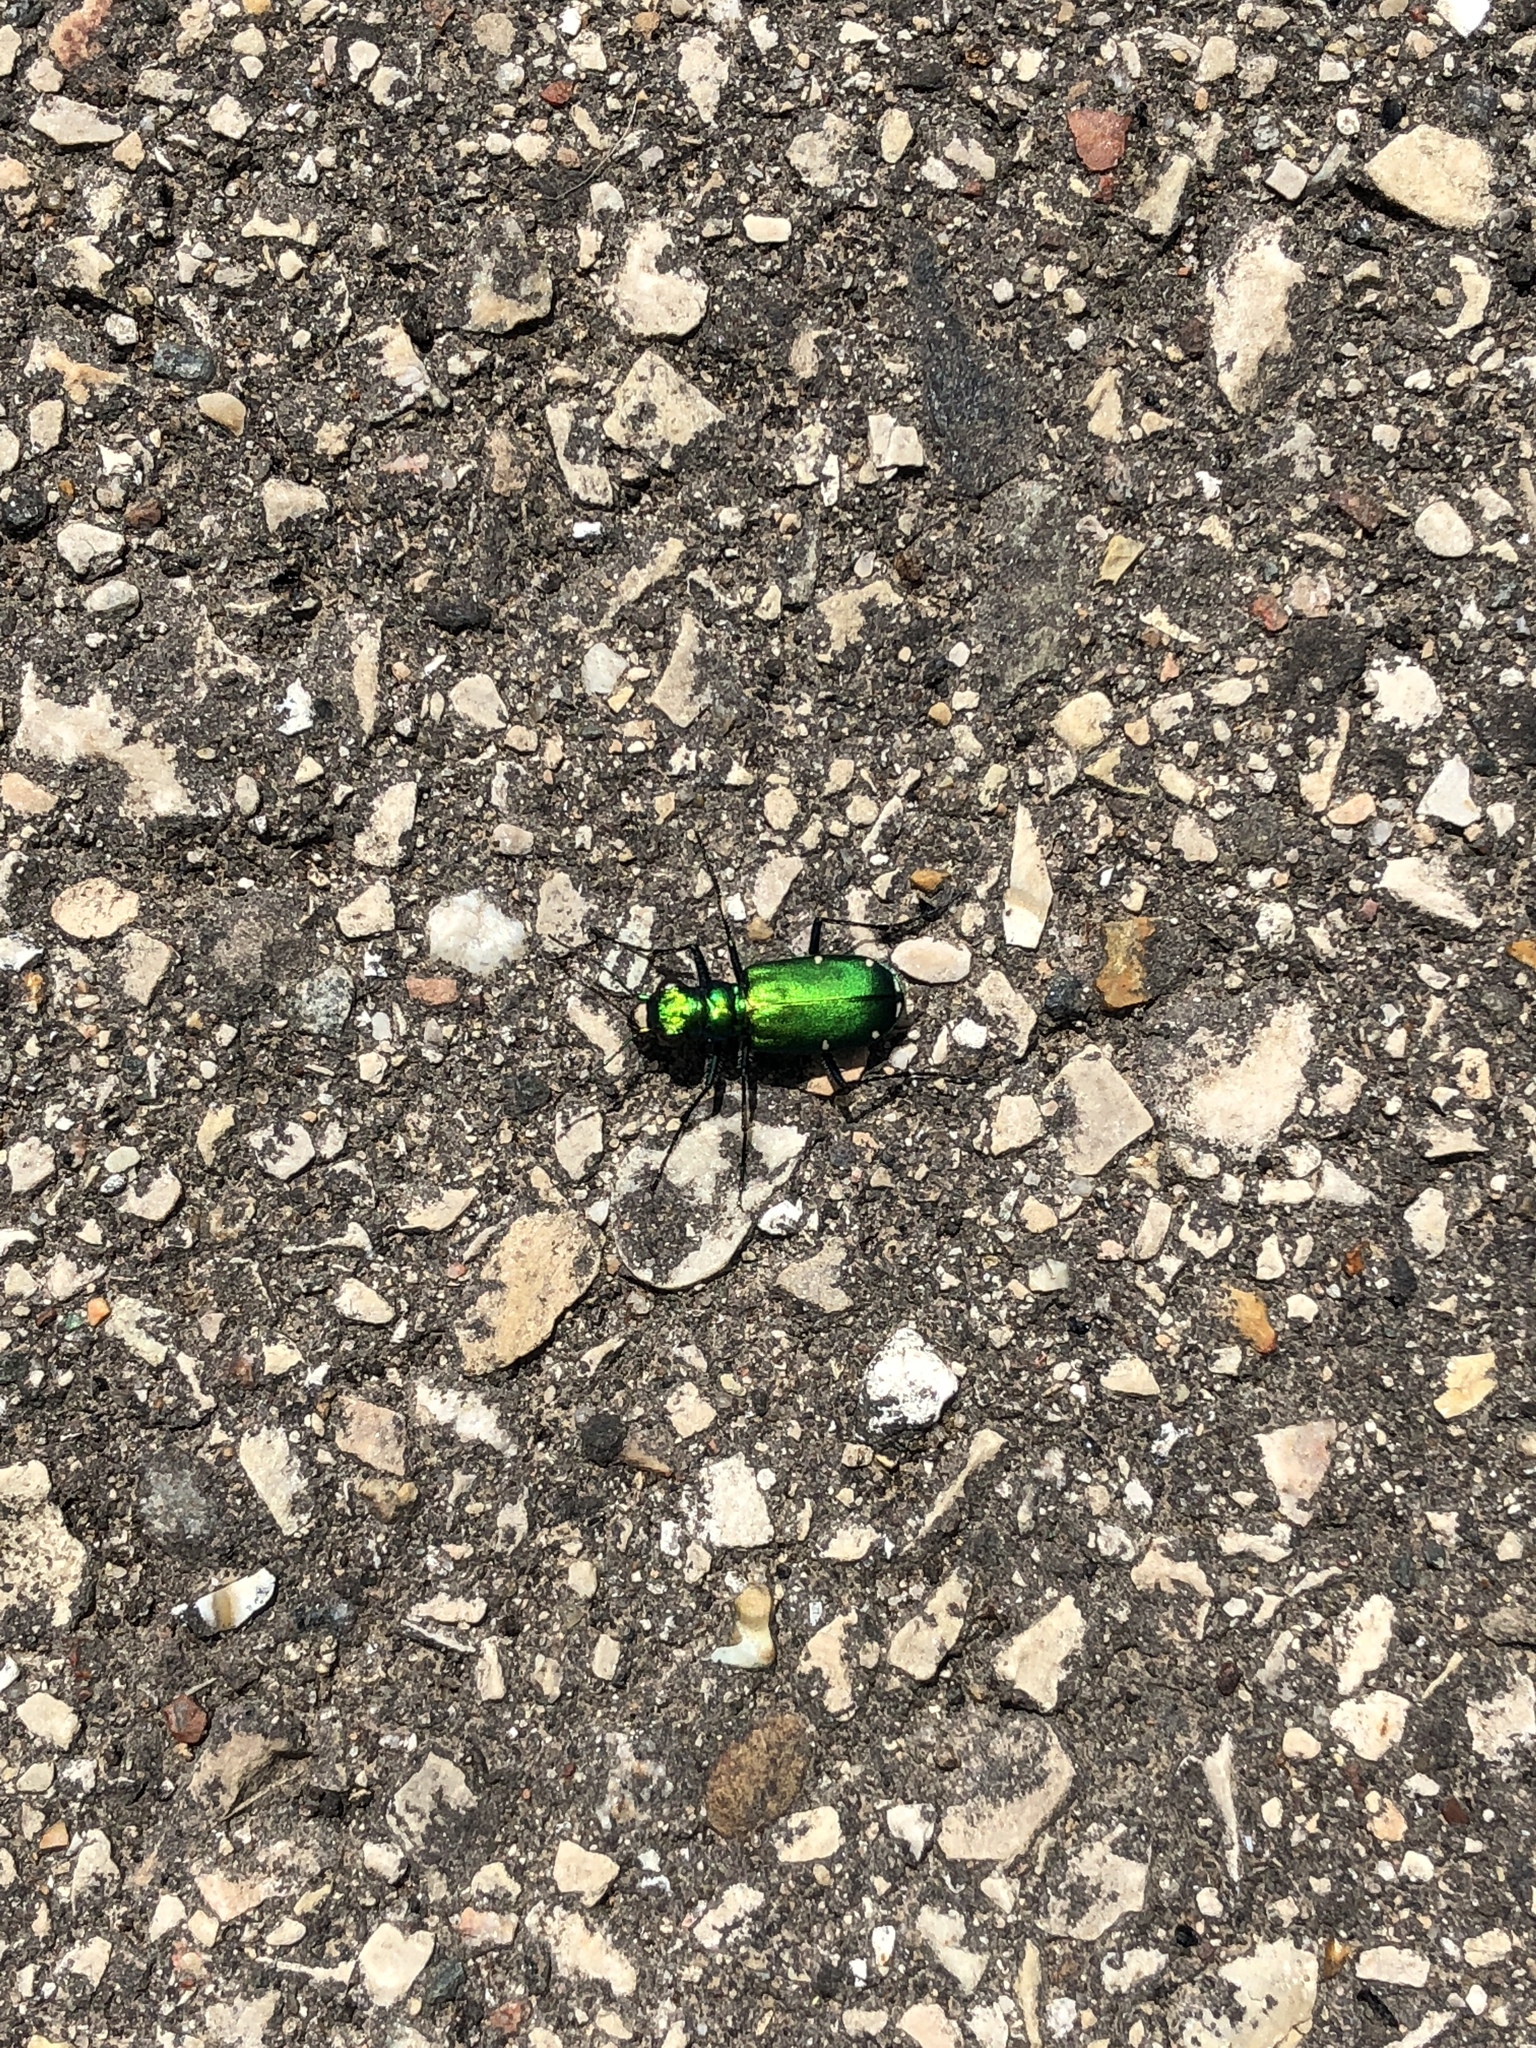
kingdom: Animalia
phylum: Arthropoda
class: Insecta
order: Coleoptera
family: Carabidae
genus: Cicindela
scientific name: Cicindela sexguttata
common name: Six-spotted tiger beetle
